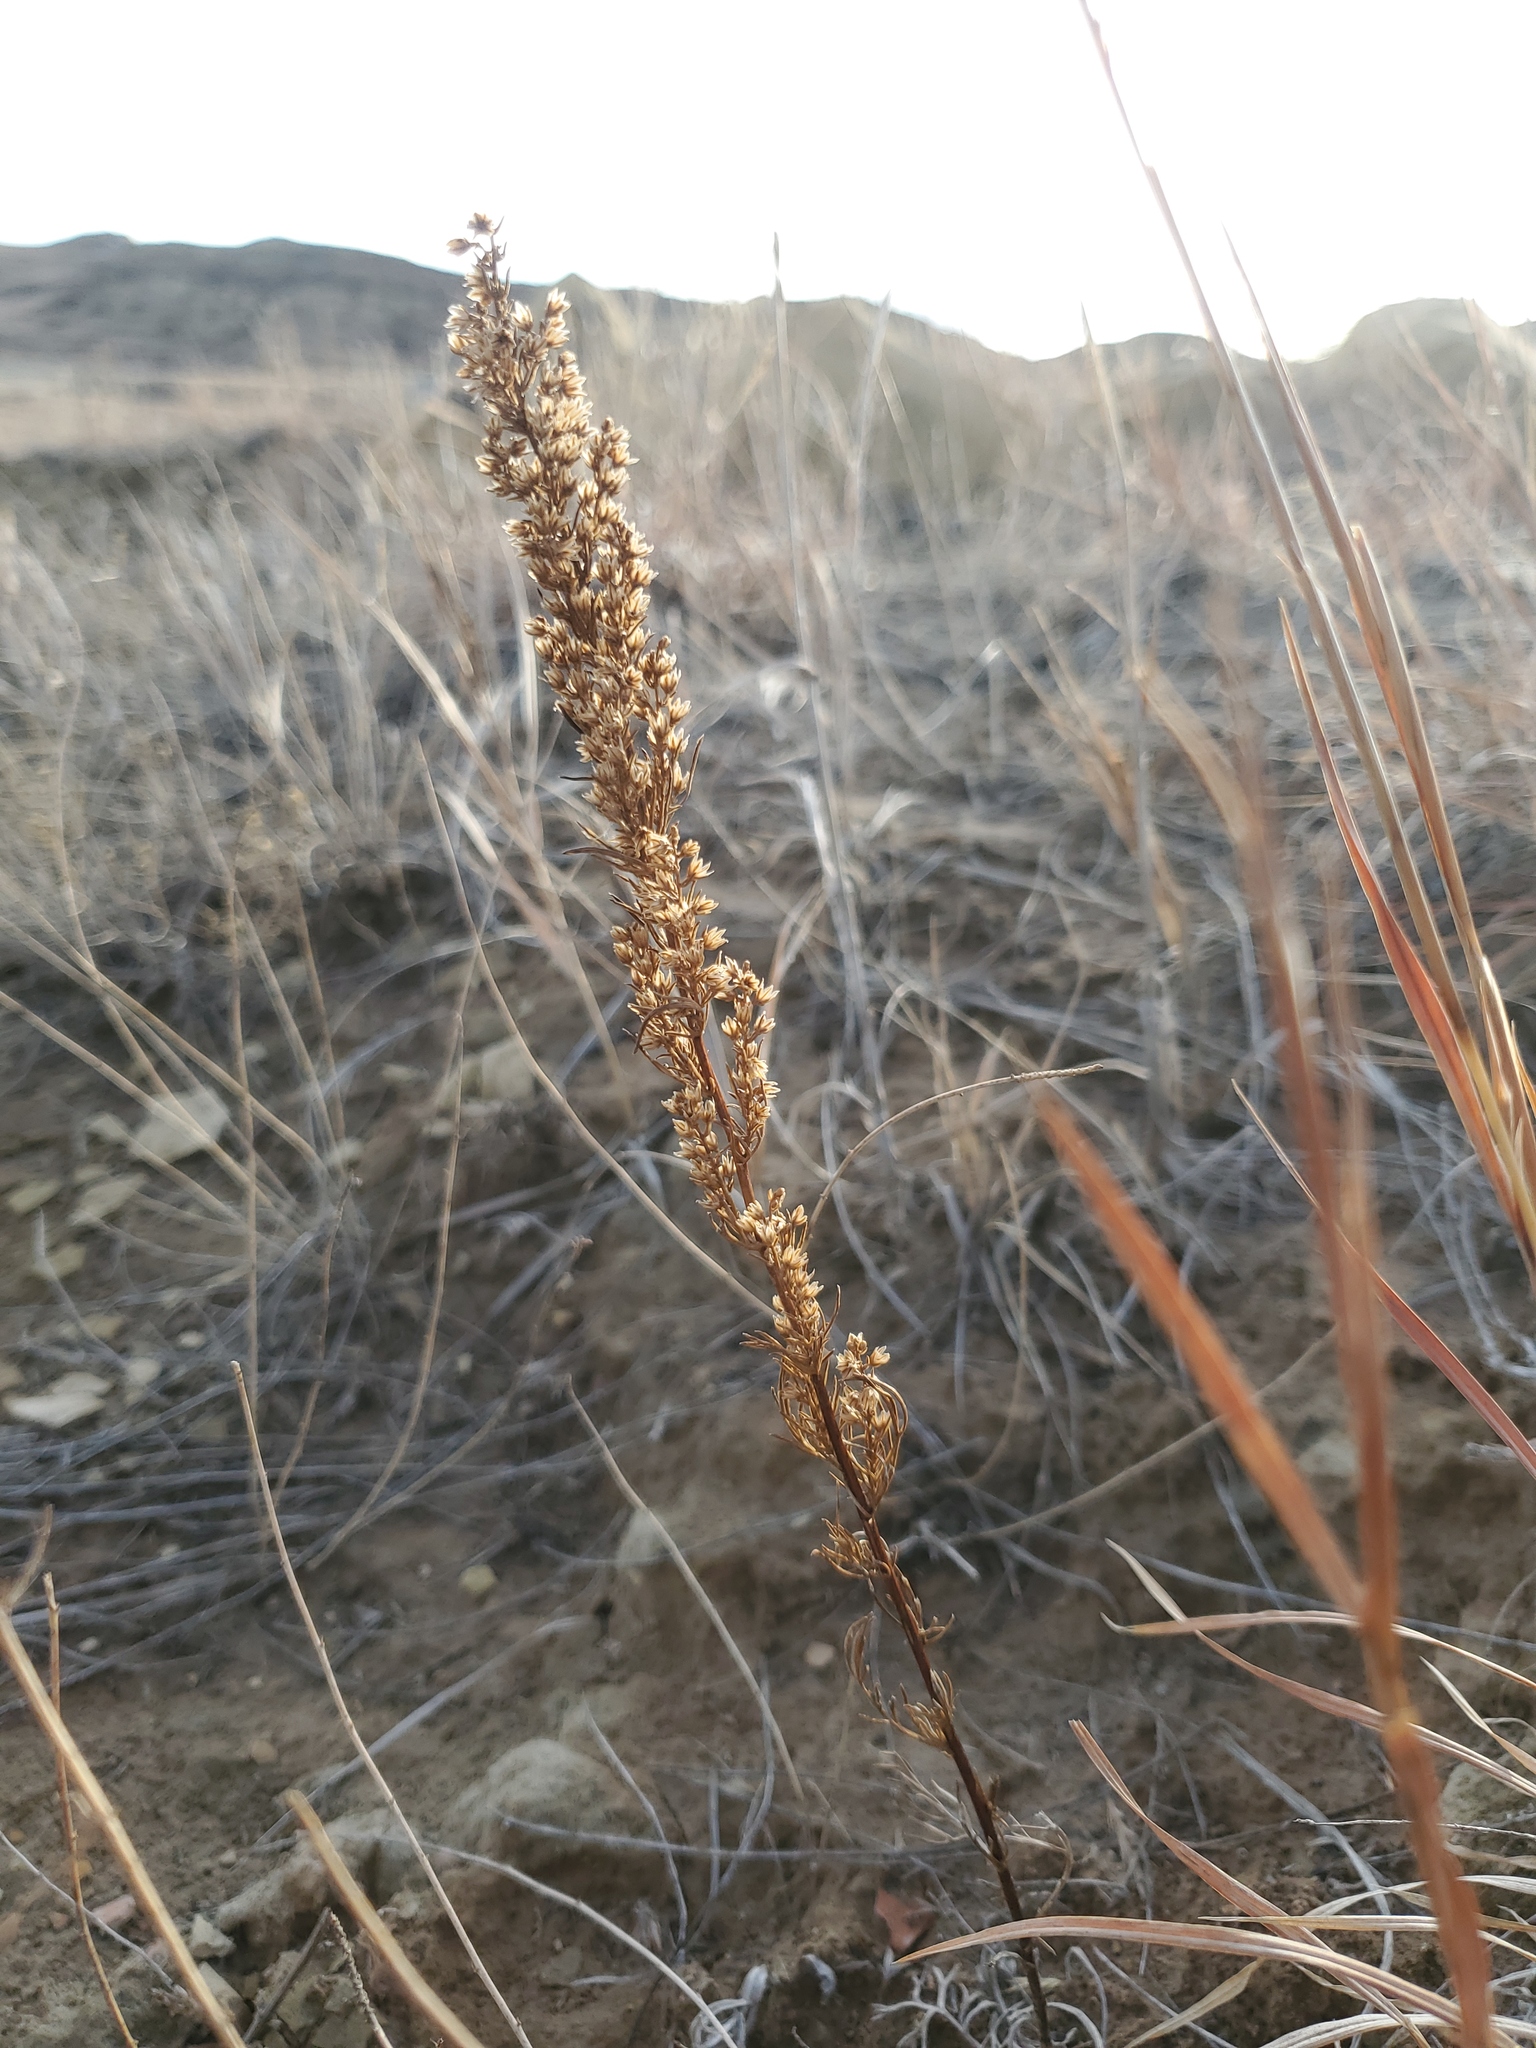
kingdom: Plantae
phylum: Tracheophyta
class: Magnoliopsida
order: Asterales
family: Asteraceae
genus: Artemisia
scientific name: Artemisia campestris
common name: Field wormwood
